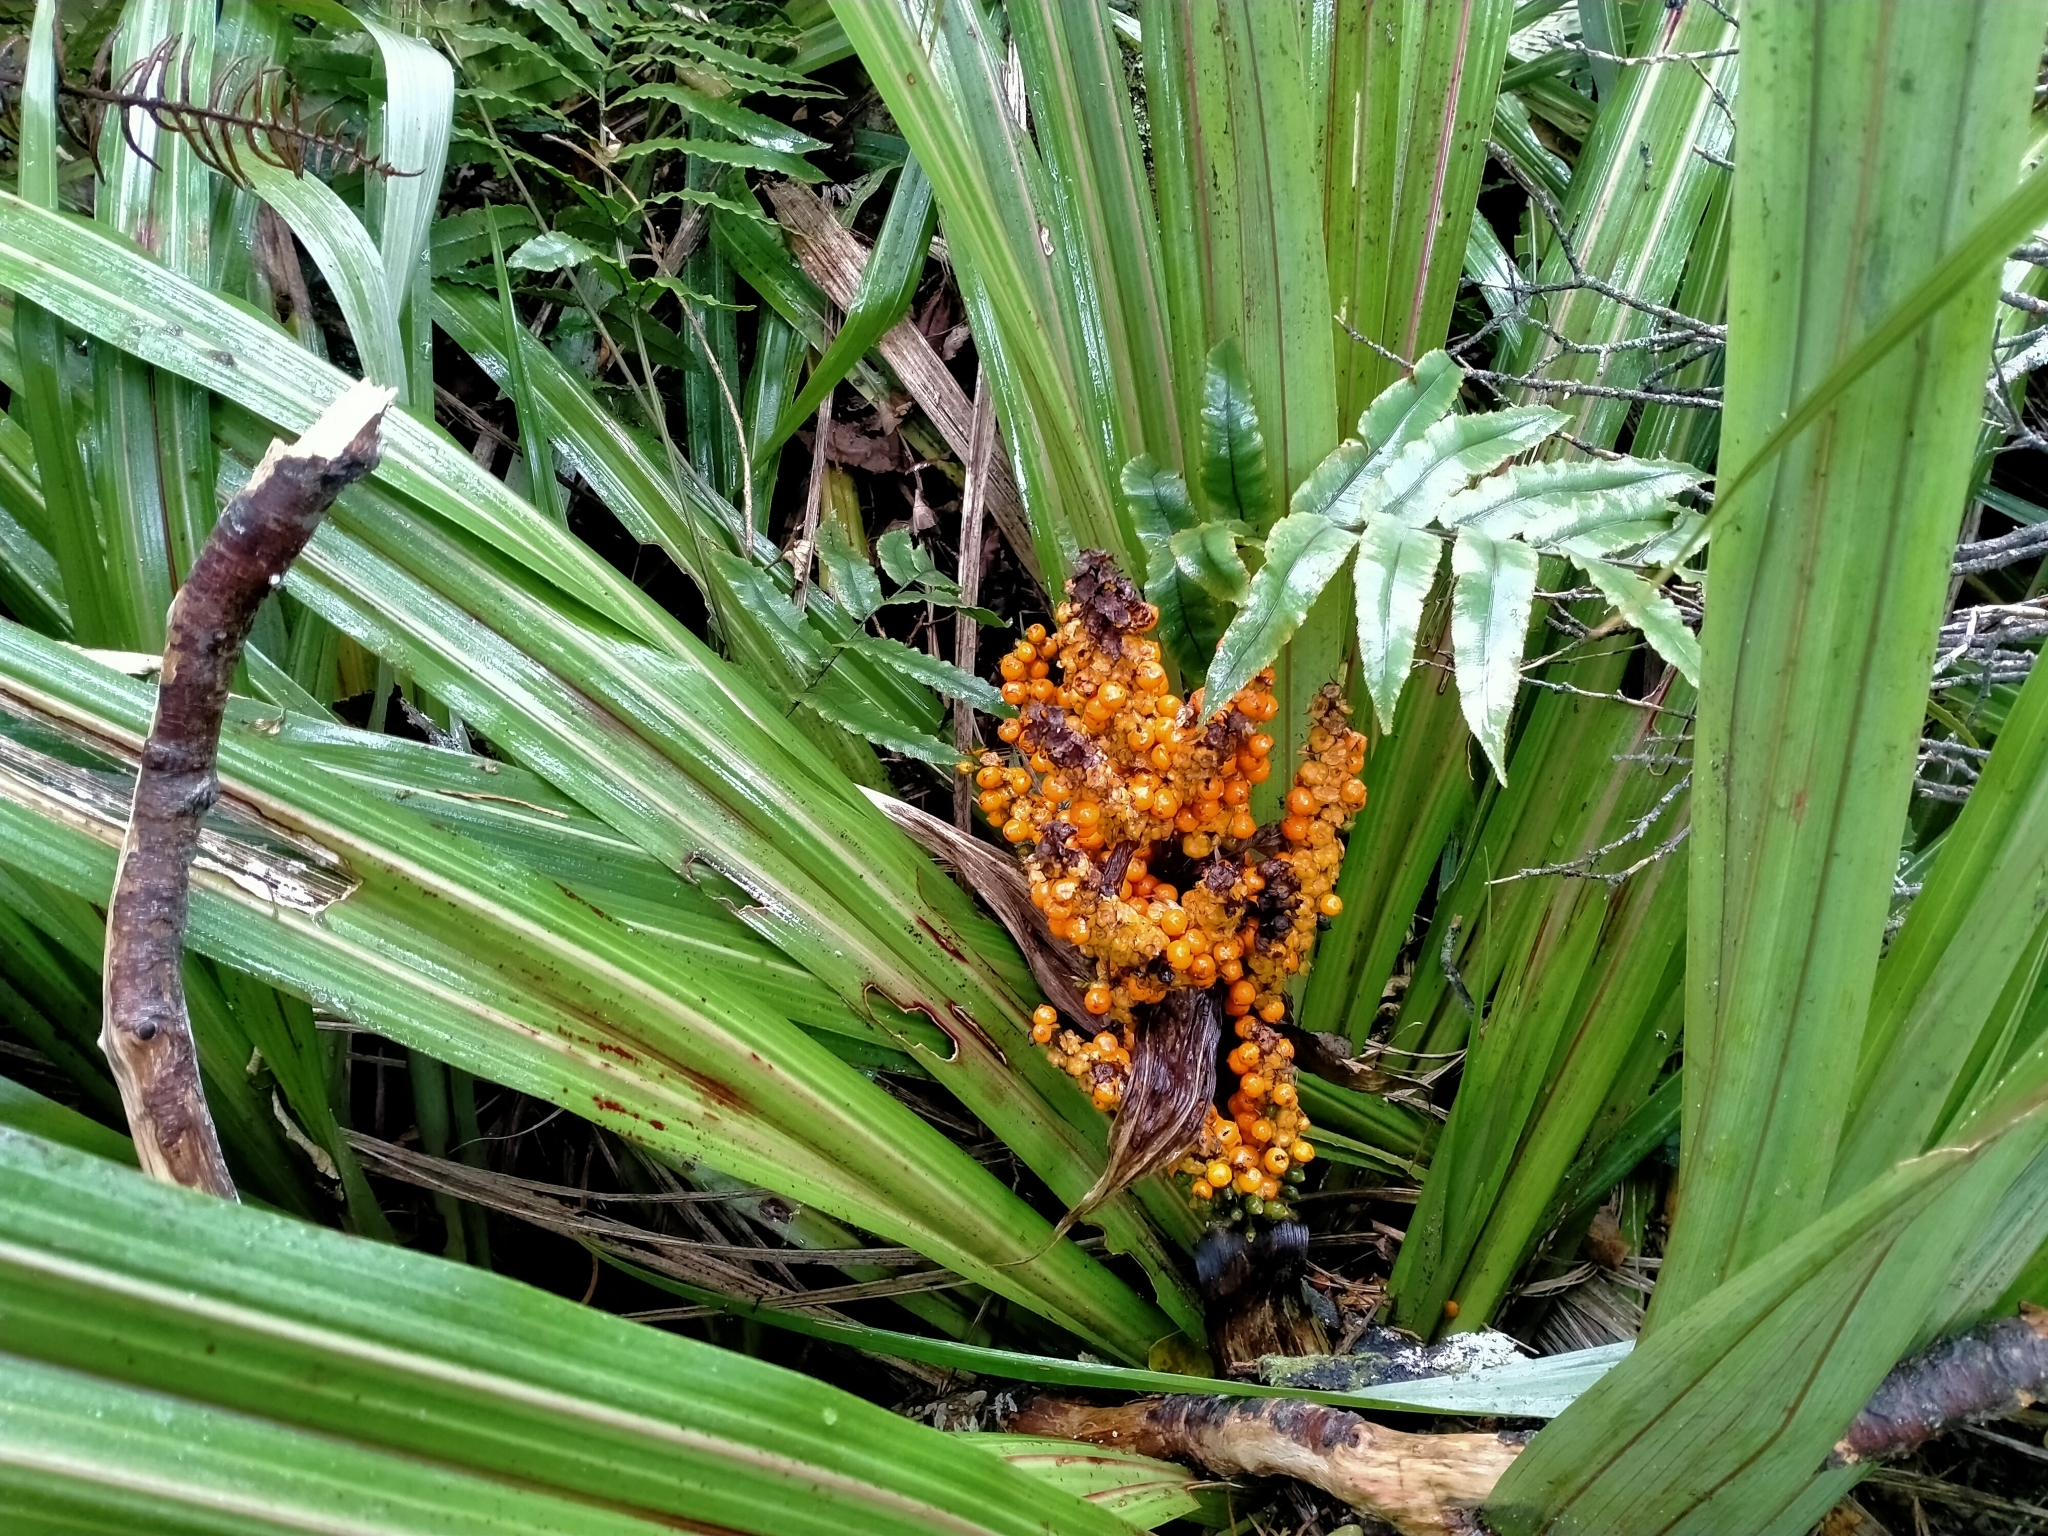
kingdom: Plantae
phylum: Tracheophyta
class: Liliopsida
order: Asparagales
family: Asteliaceae
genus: Astelia
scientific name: Astelia fragrans
